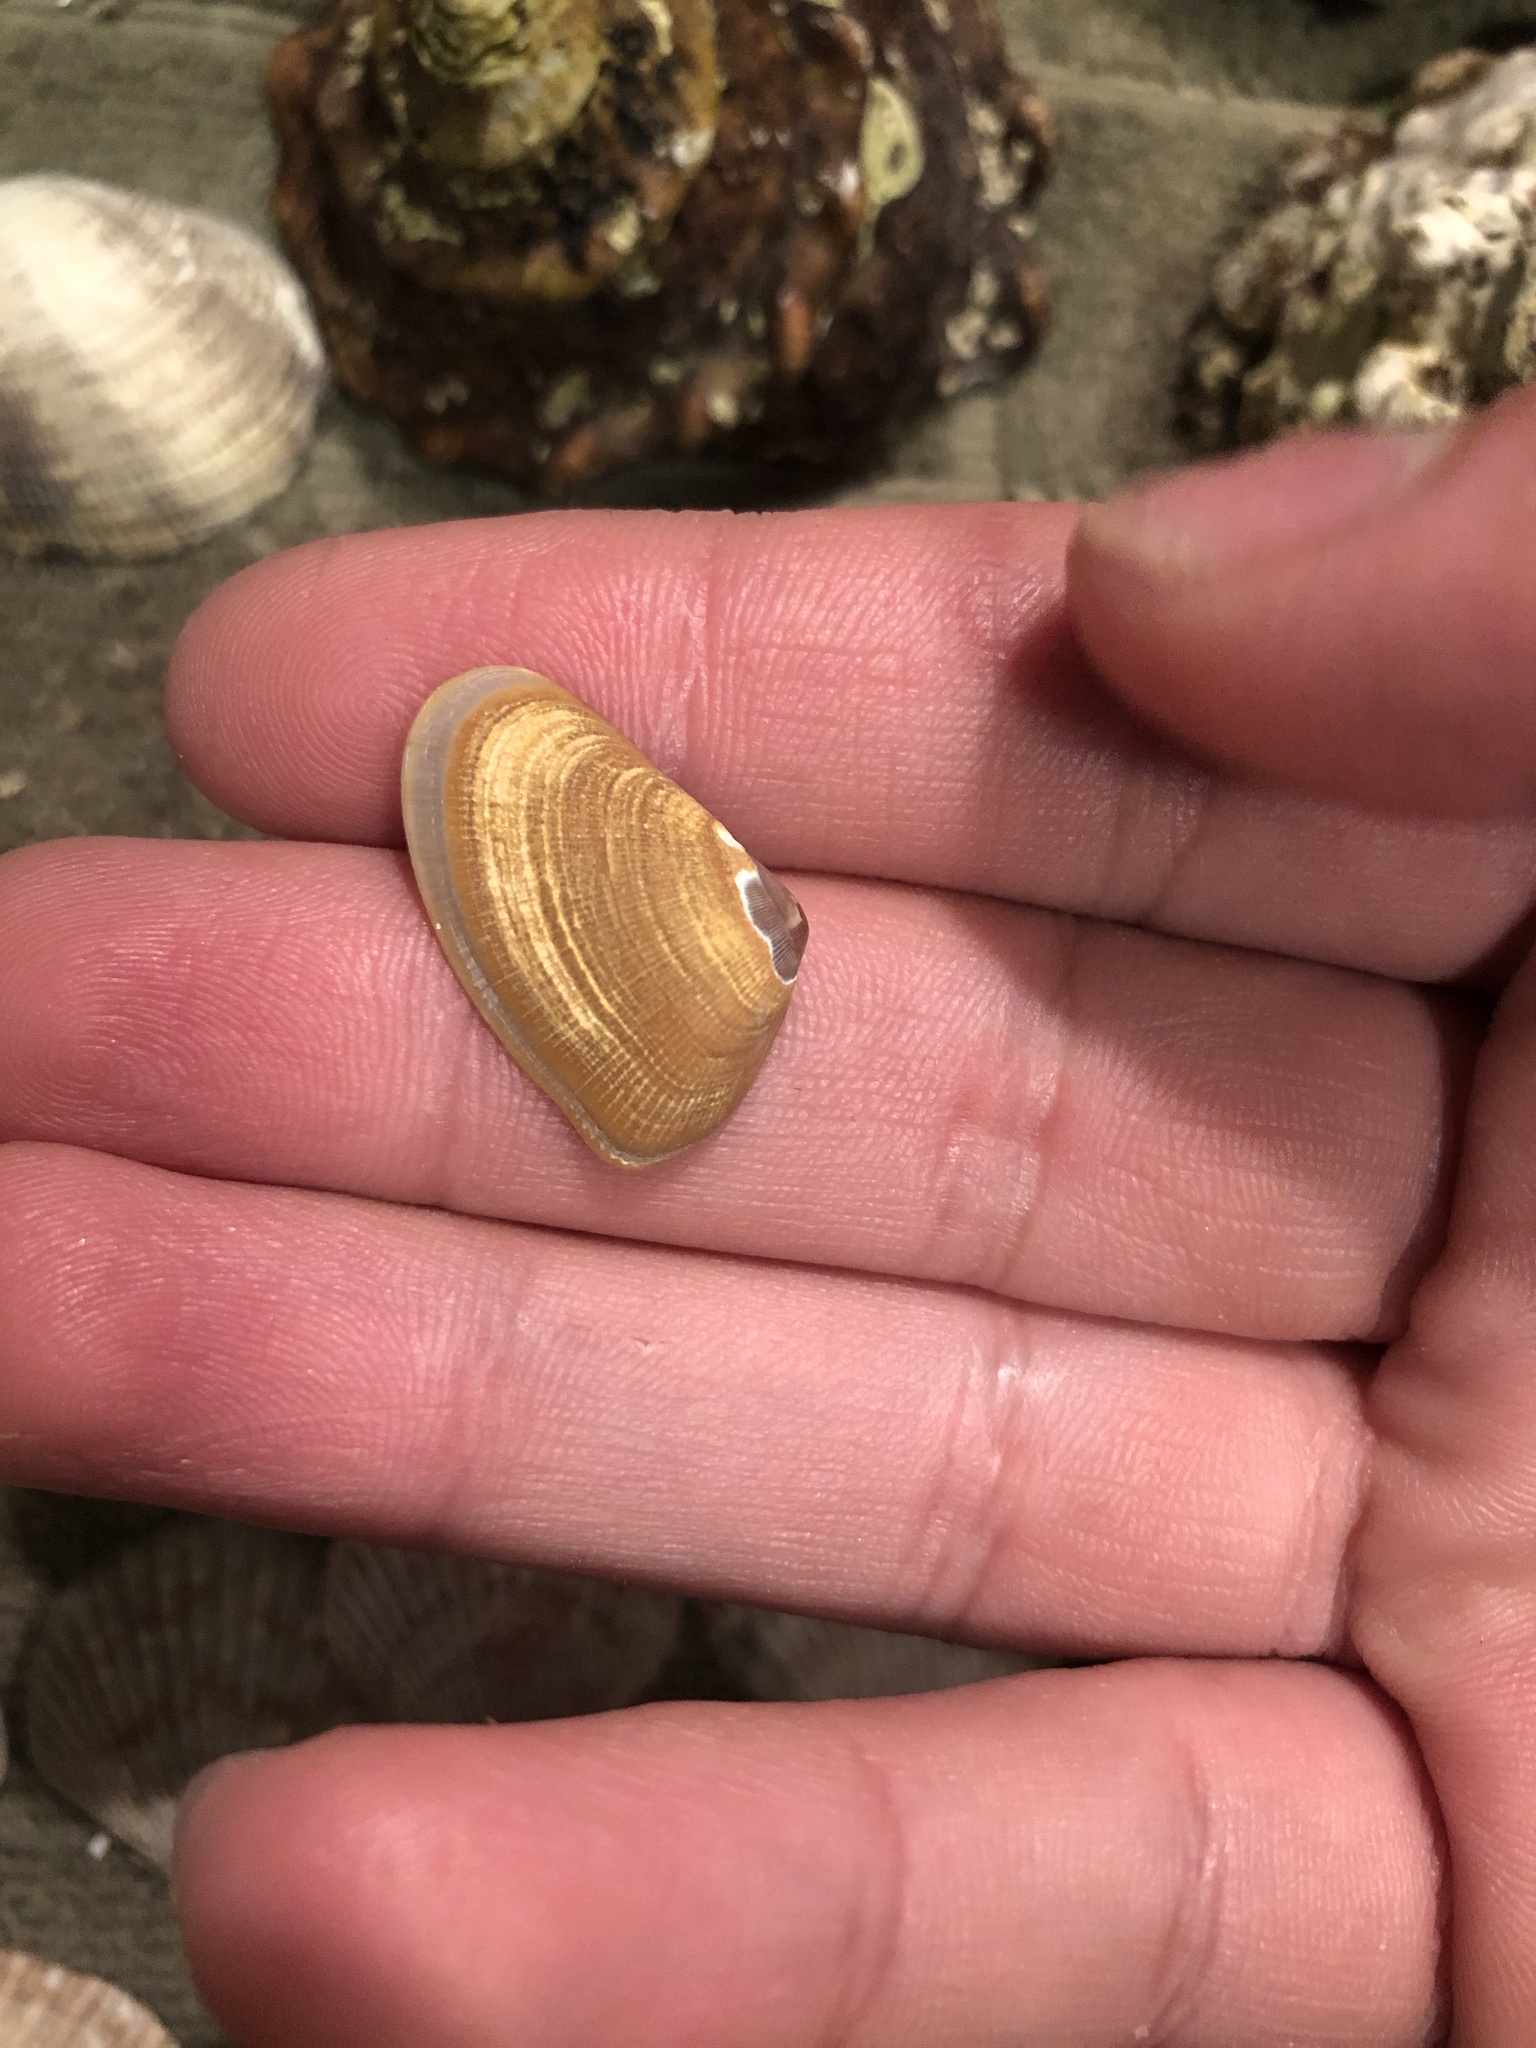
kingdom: Animalia
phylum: Mollusca
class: Bivalvia
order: Cardiida
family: Donacidae
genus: Donax
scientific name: Donax gouldii
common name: Gould beanclam
